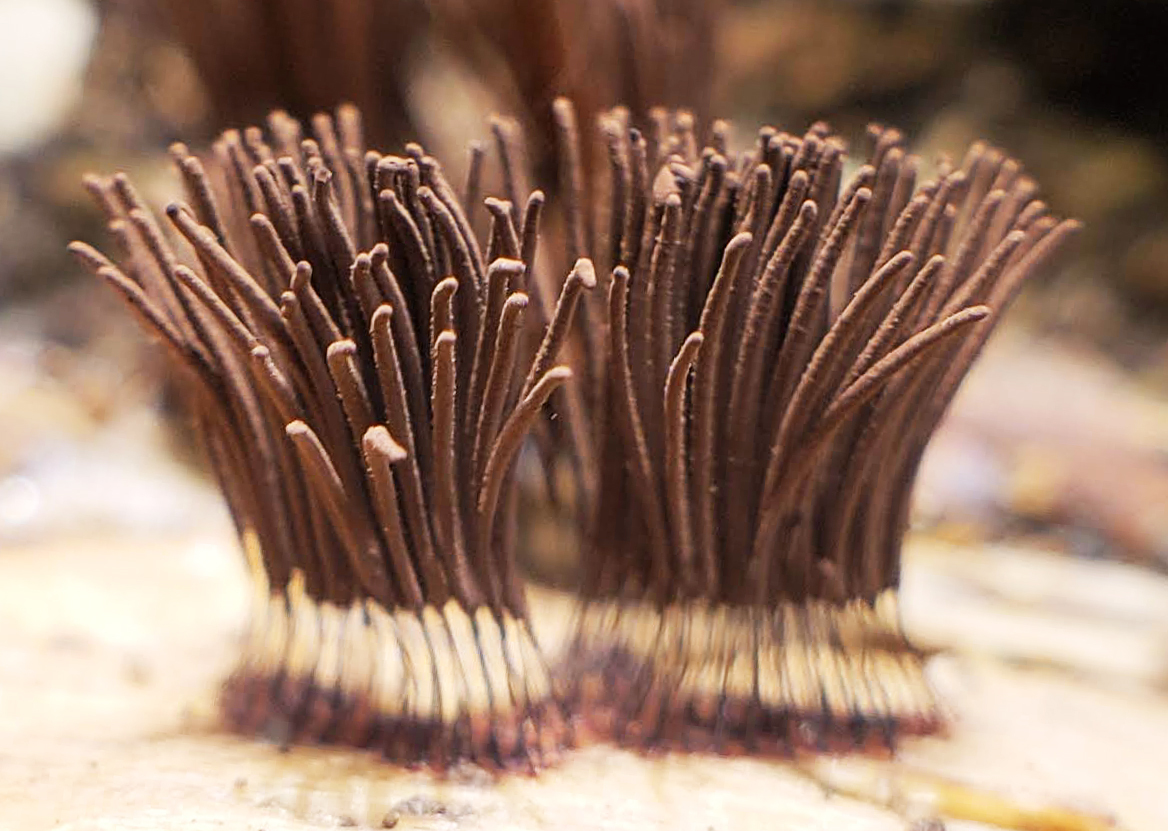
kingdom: Protozoa
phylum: Mycetozoa
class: Myxomycetes
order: Stemonitidales
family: Stemonitidaceae
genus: Stemonitis
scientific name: Stemonitis
